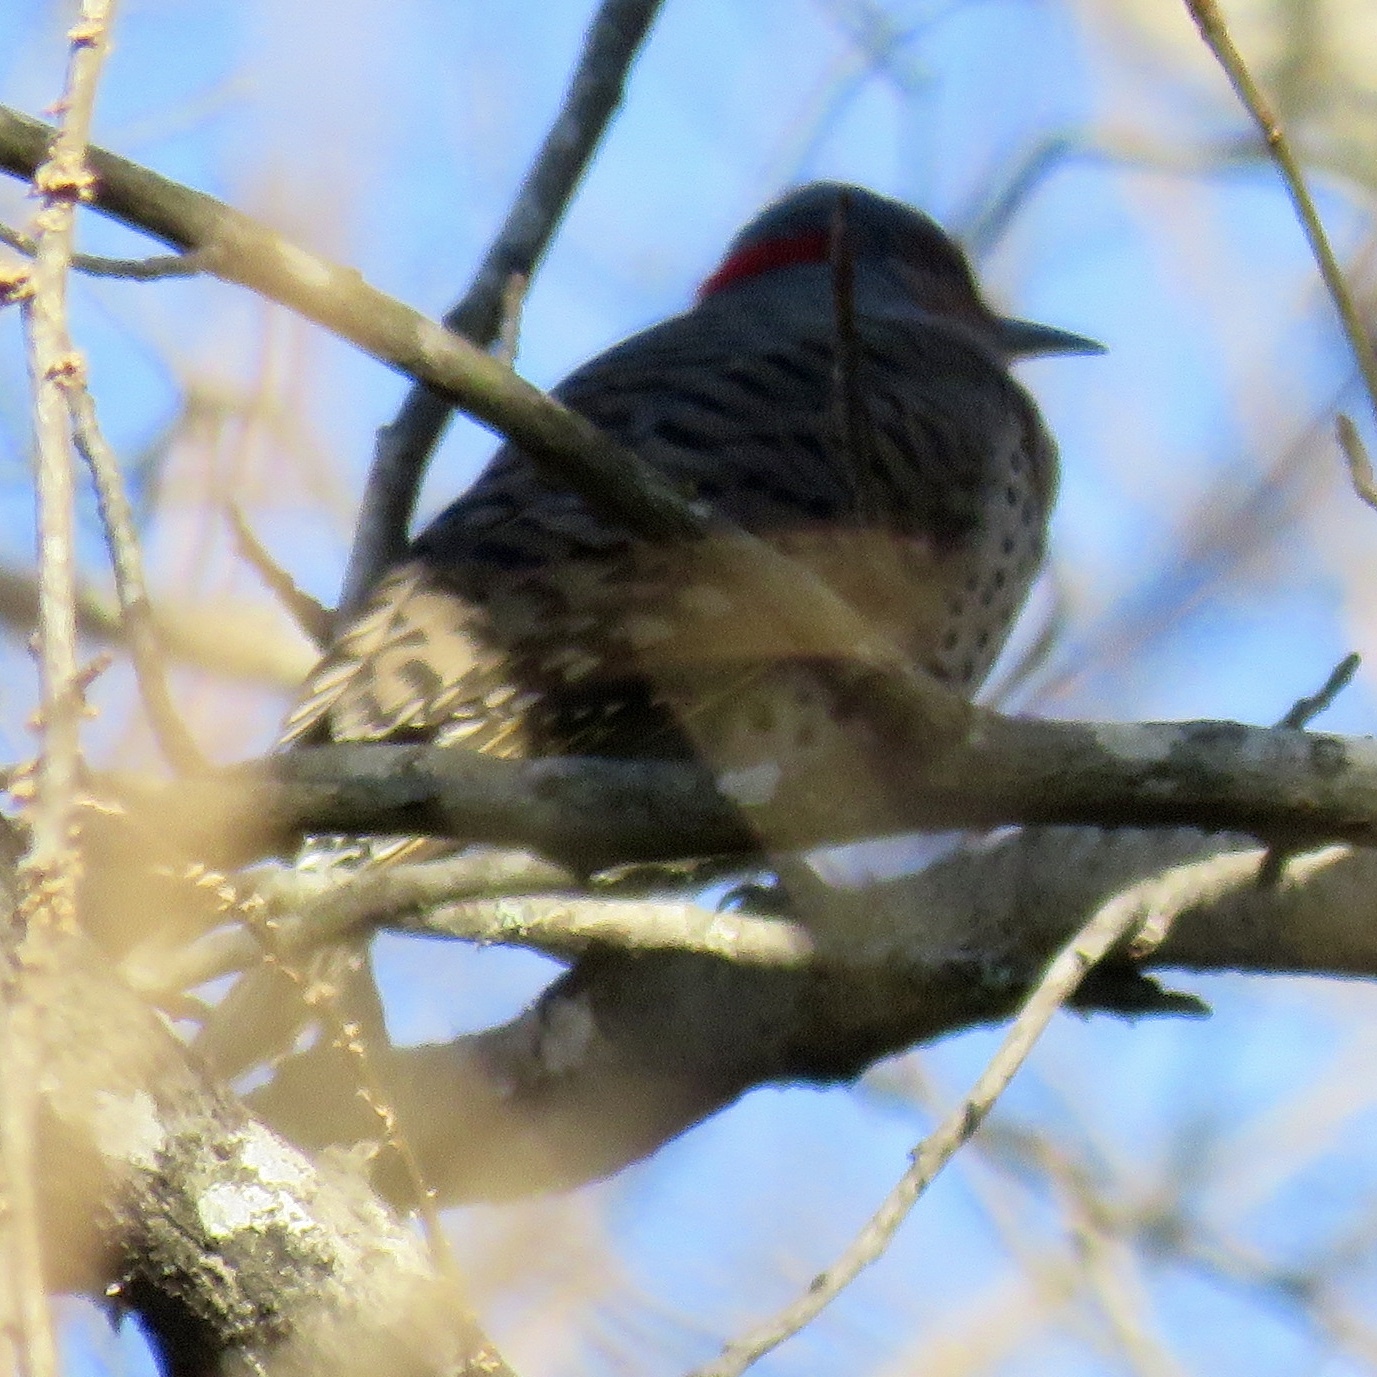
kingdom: Animalia
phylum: Chordata
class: Aves
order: Piciformes
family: Picidae
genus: Colaptes
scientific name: Colaptes auratus
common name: Northern flicker
